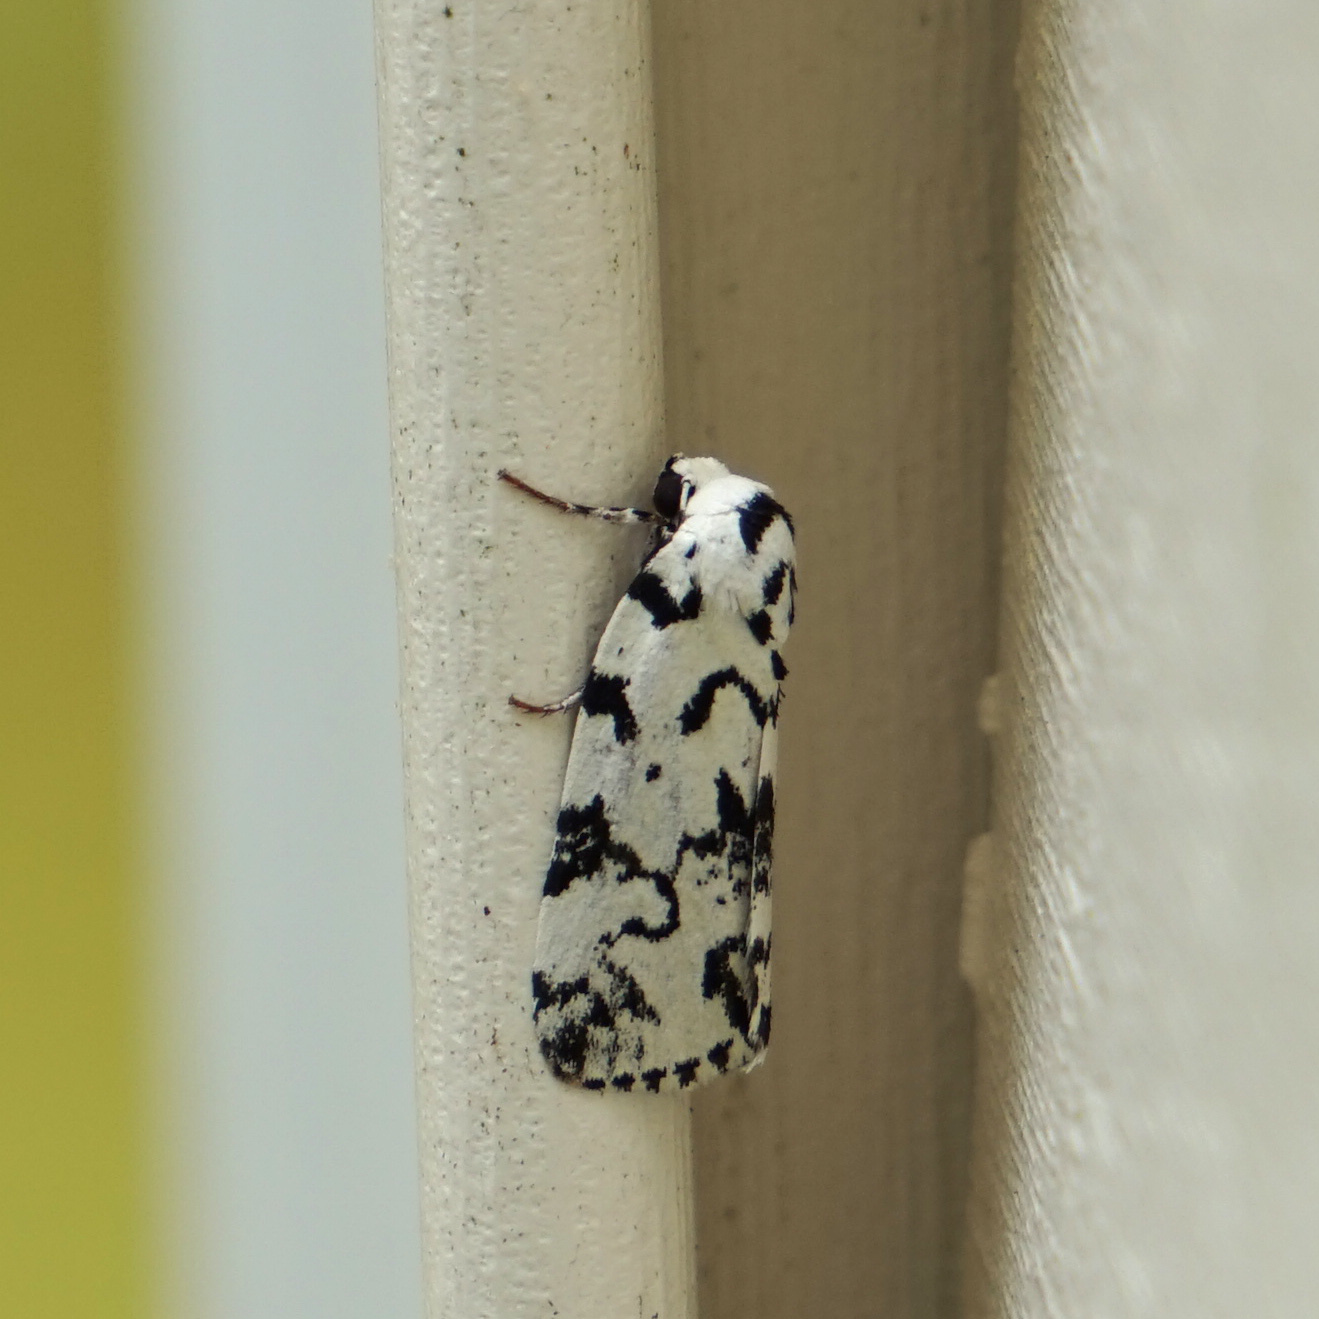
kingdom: Animalia
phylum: Arthropoda
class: Insecta
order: Lepidoptera
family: Noctuidae
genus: Polygrammate
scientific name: Polygrammate hebraeicum
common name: Hebrew moth
